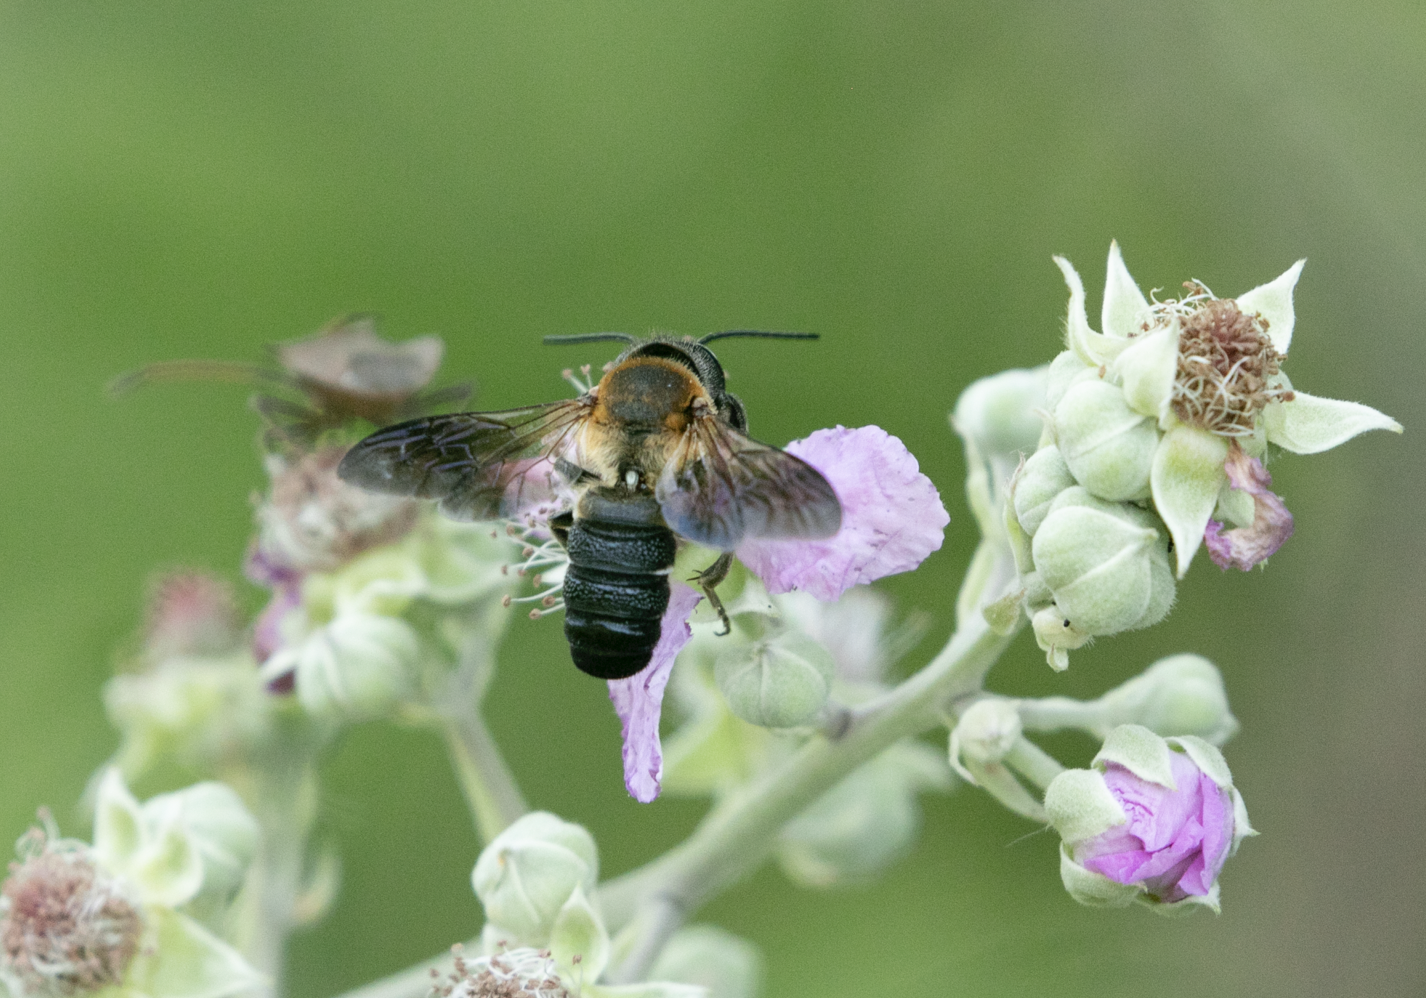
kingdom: Animalia
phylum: Arthropoda
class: Insecta
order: Hymenoptera
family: Megachilidae
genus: Megachile
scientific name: Megachile sculpturalis
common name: Sculptured resin bee
